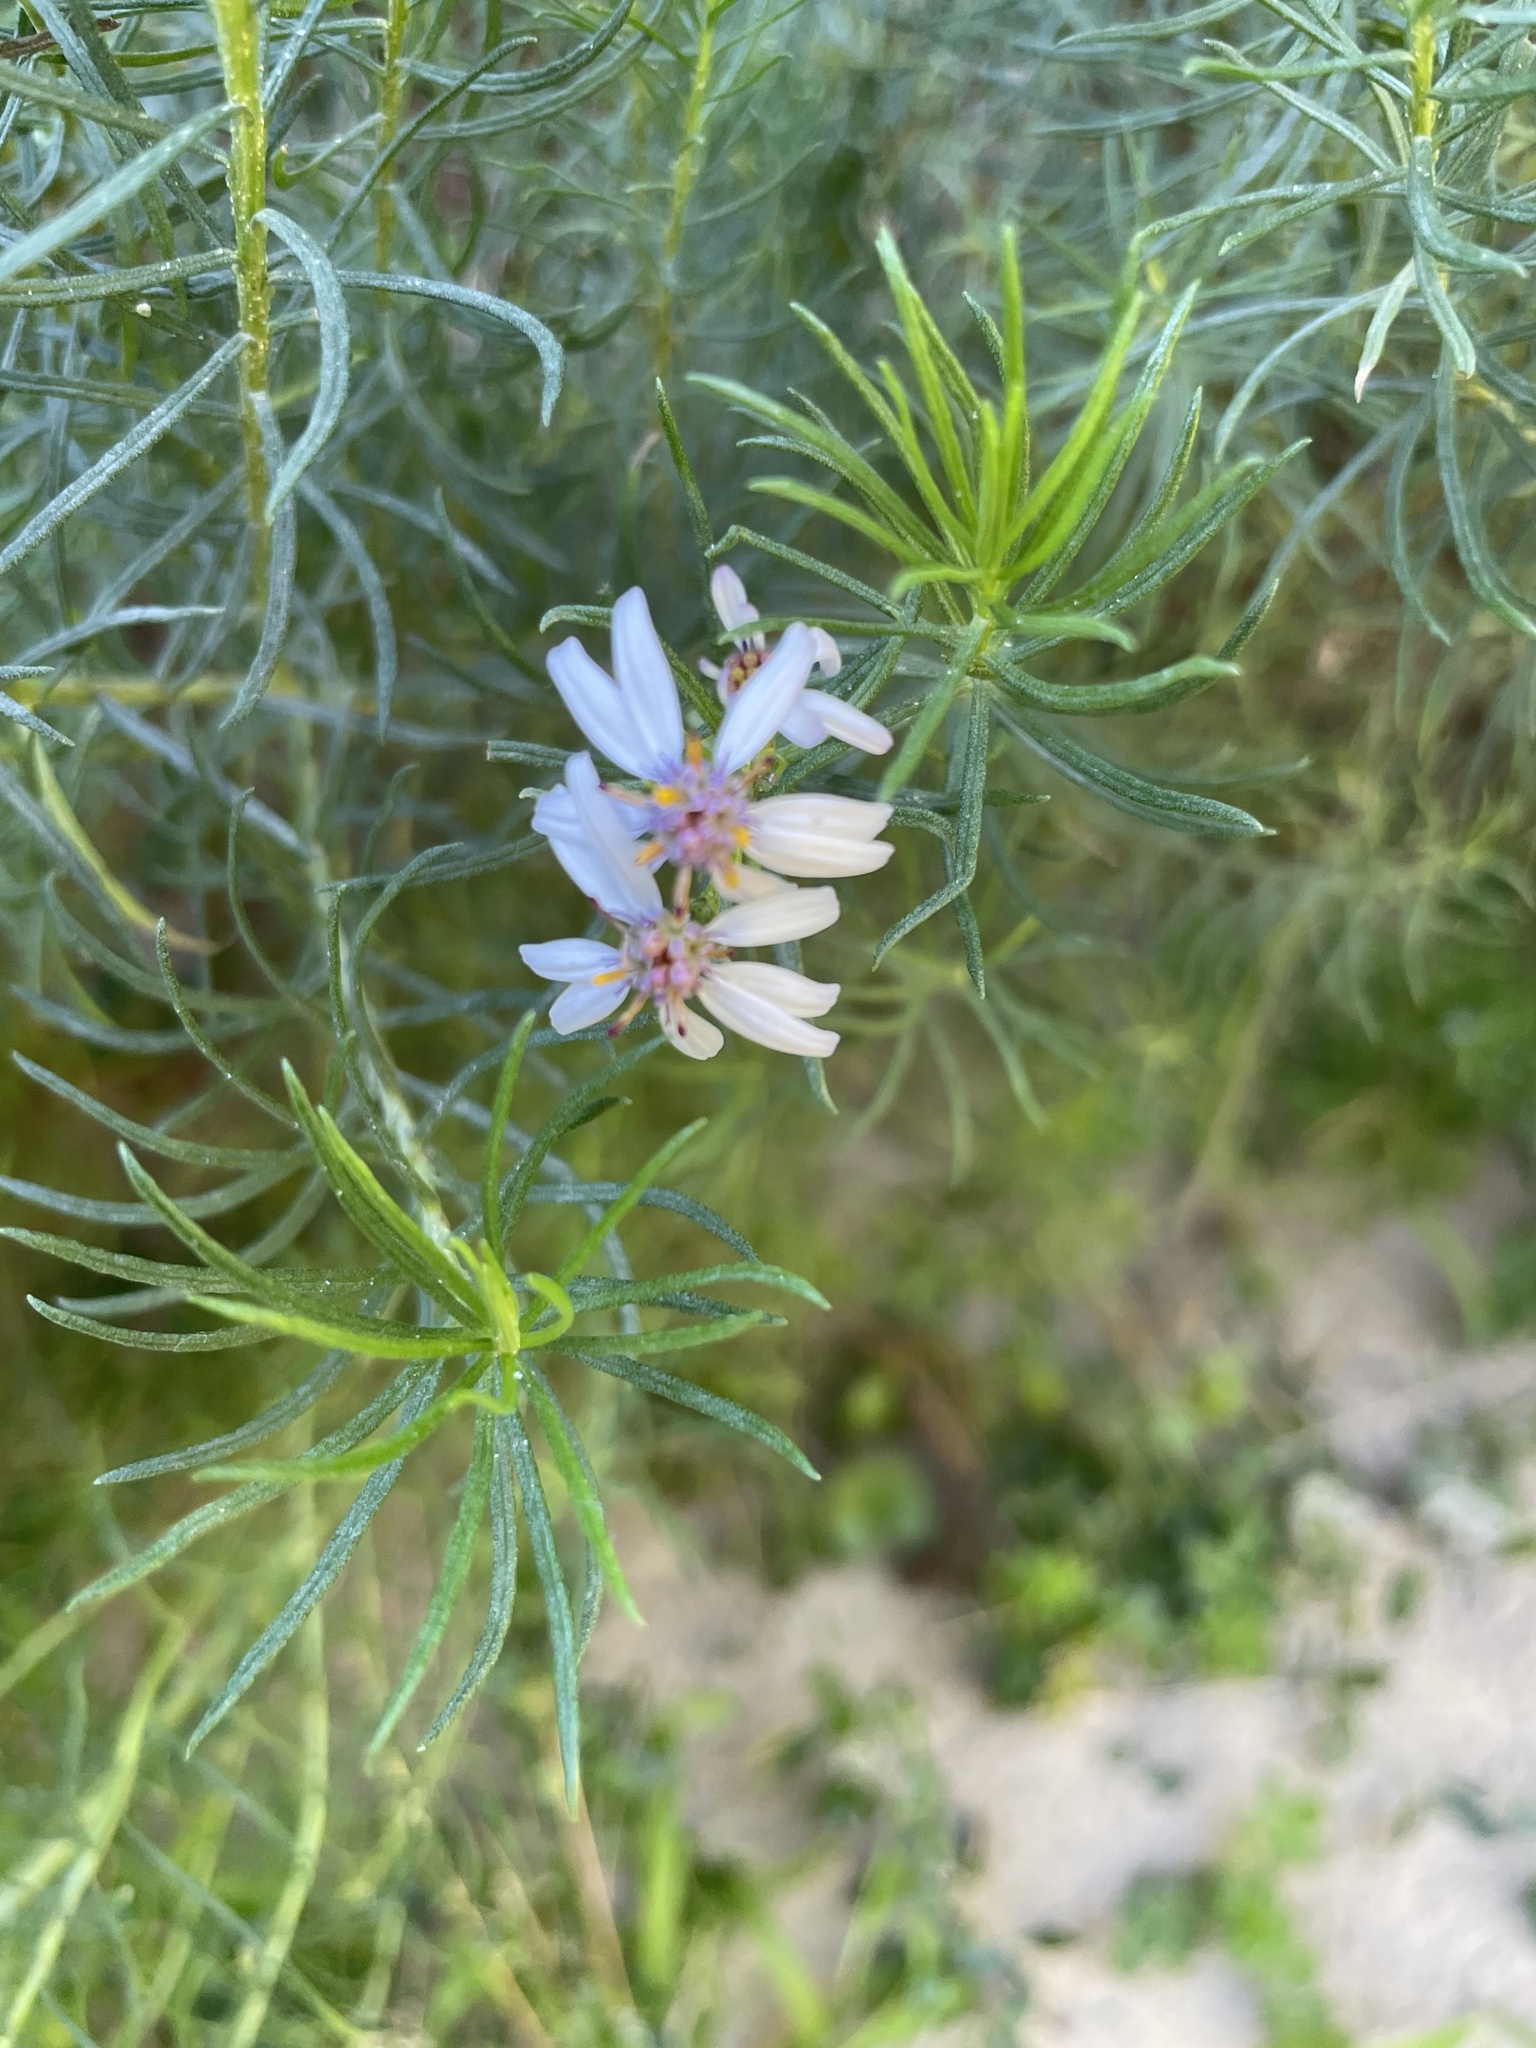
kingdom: Plantae
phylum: Tracheophyta
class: Magnoliopsida
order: Asterales
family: Asteraceae
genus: Olearia
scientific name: Olearia glutinosa
